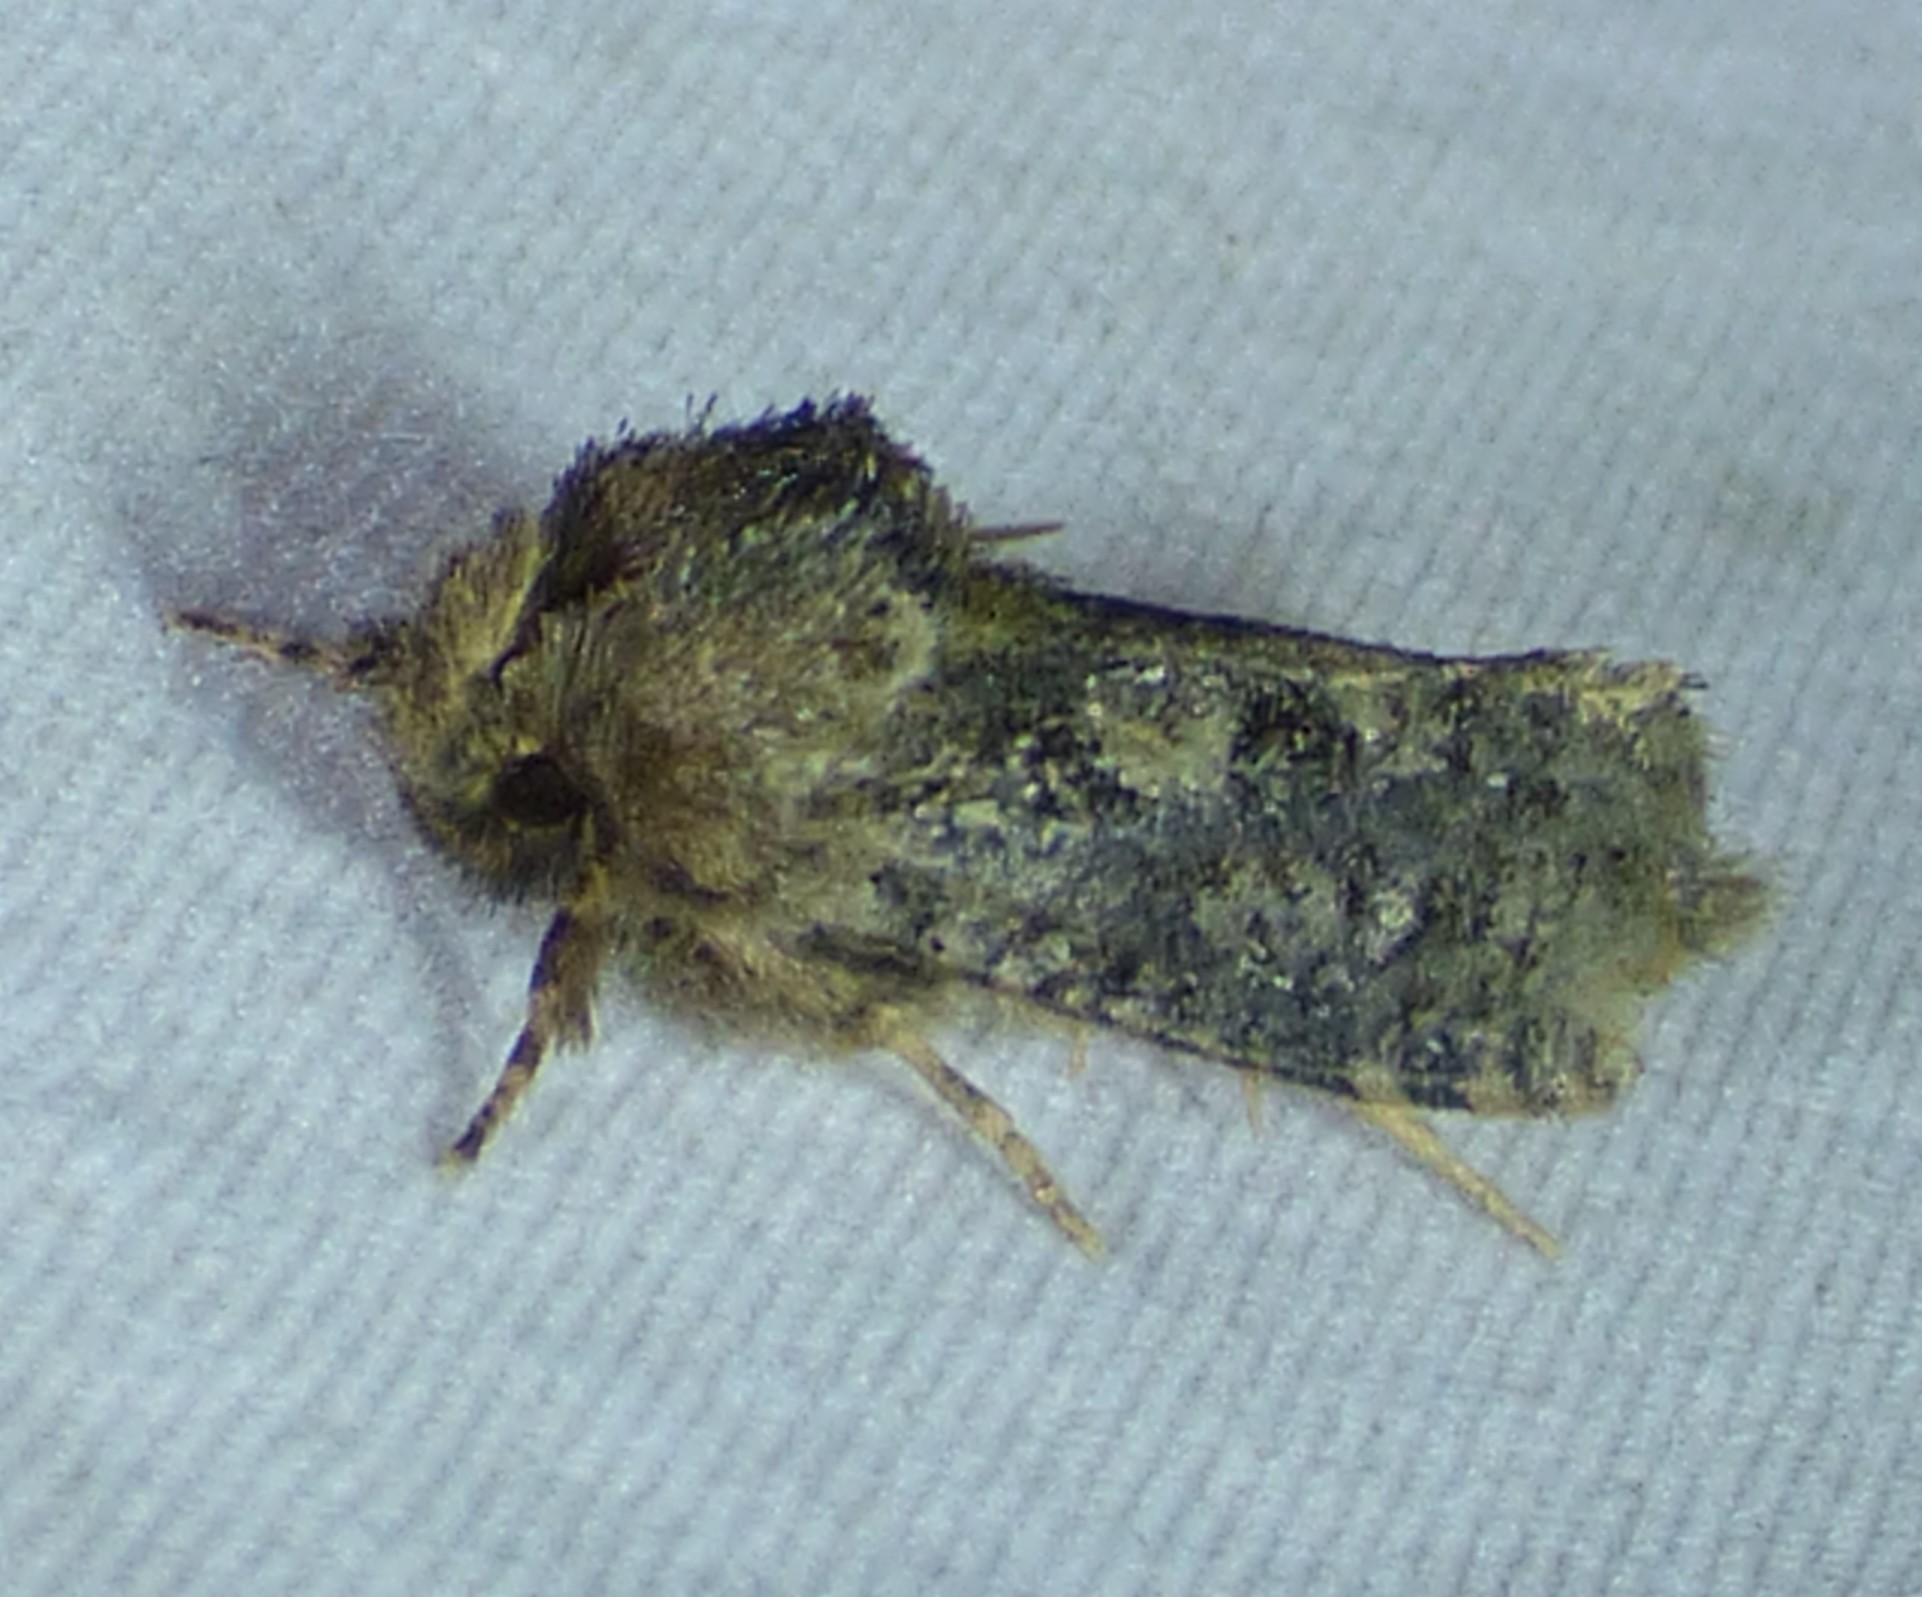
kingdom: Animalia
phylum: Arthropoda
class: Insecta
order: Lepidoptera
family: Tineidae
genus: Acrolophus
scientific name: Acrolophus arcanella
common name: Arcane grass tubeworm moth
